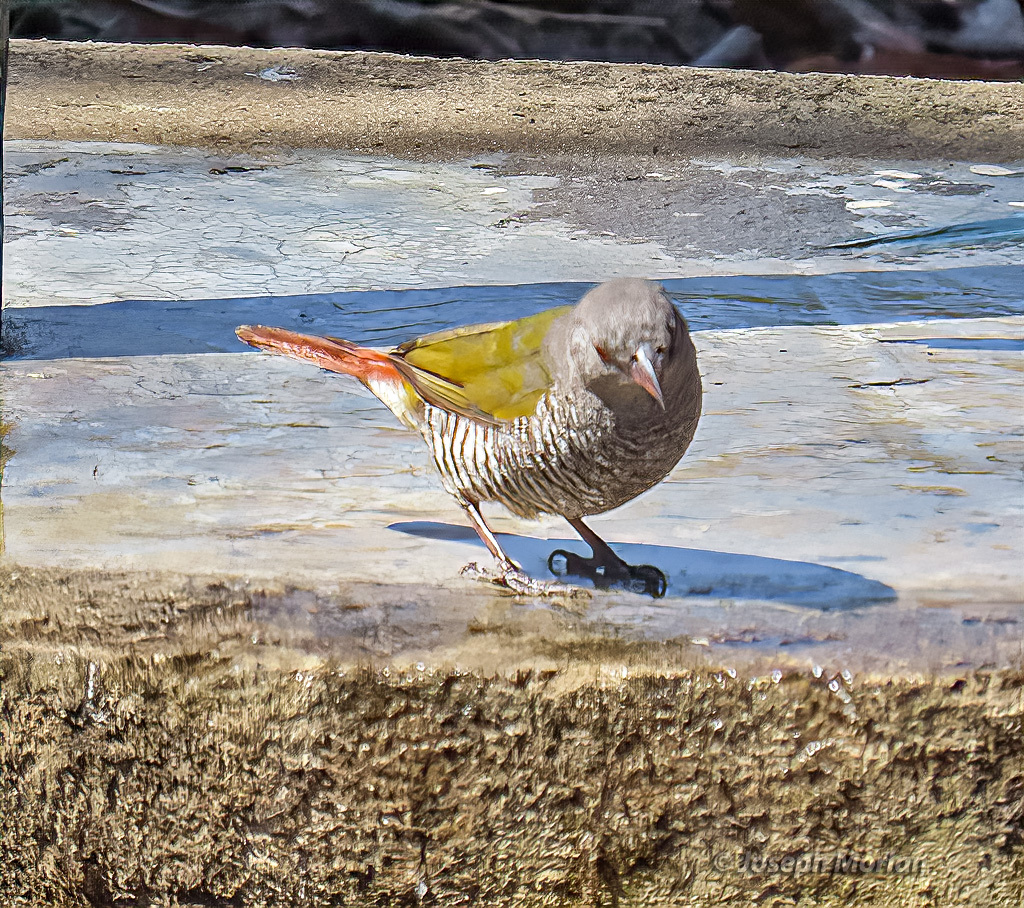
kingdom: Animalia
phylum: Chordata
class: Aves
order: Passeriformes
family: Estrildidae
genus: Pytilia
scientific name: Pytilia melba
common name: Green-winged pytilia
